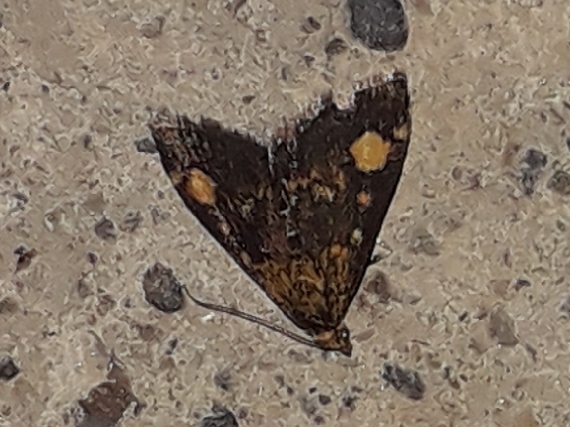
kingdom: Animalia
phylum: Arthropoda
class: Insecta
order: Lepidoptera
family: Crambidae
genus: Pyrausta
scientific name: Pyrausta aurata
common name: Small purple & gold
